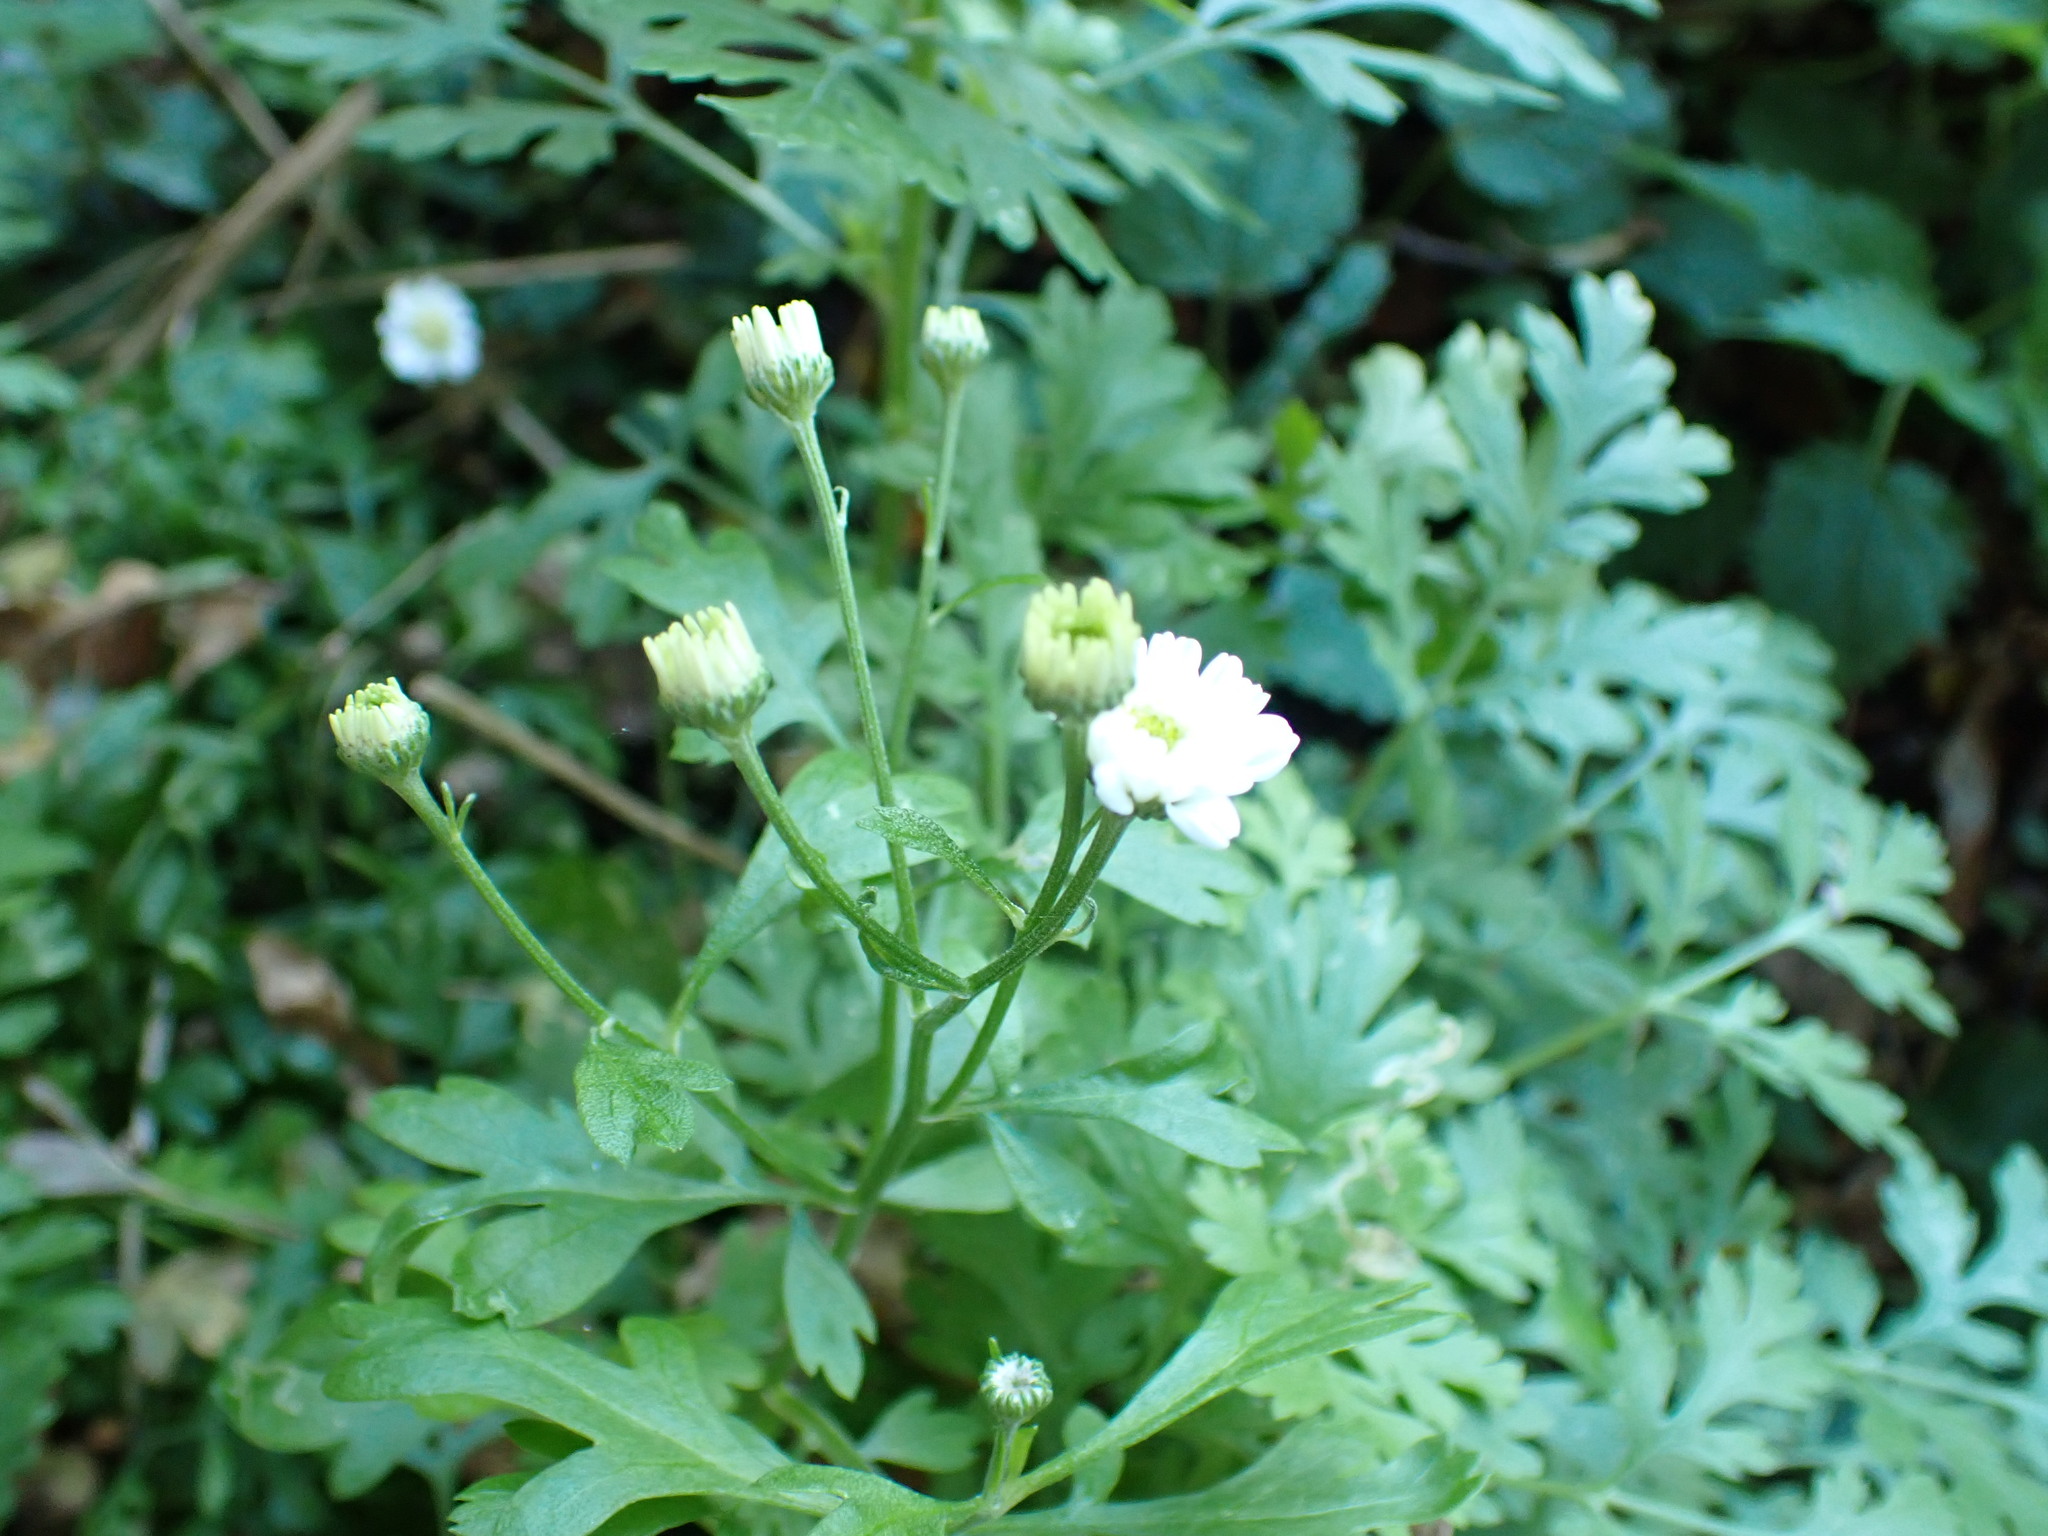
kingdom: Plantae
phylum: Tracheophyta
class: Magnoliopsida
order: Asterales
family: Asteraceae
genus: Tanacetum
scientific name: Tanacetum parthenium
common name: Feverfew
